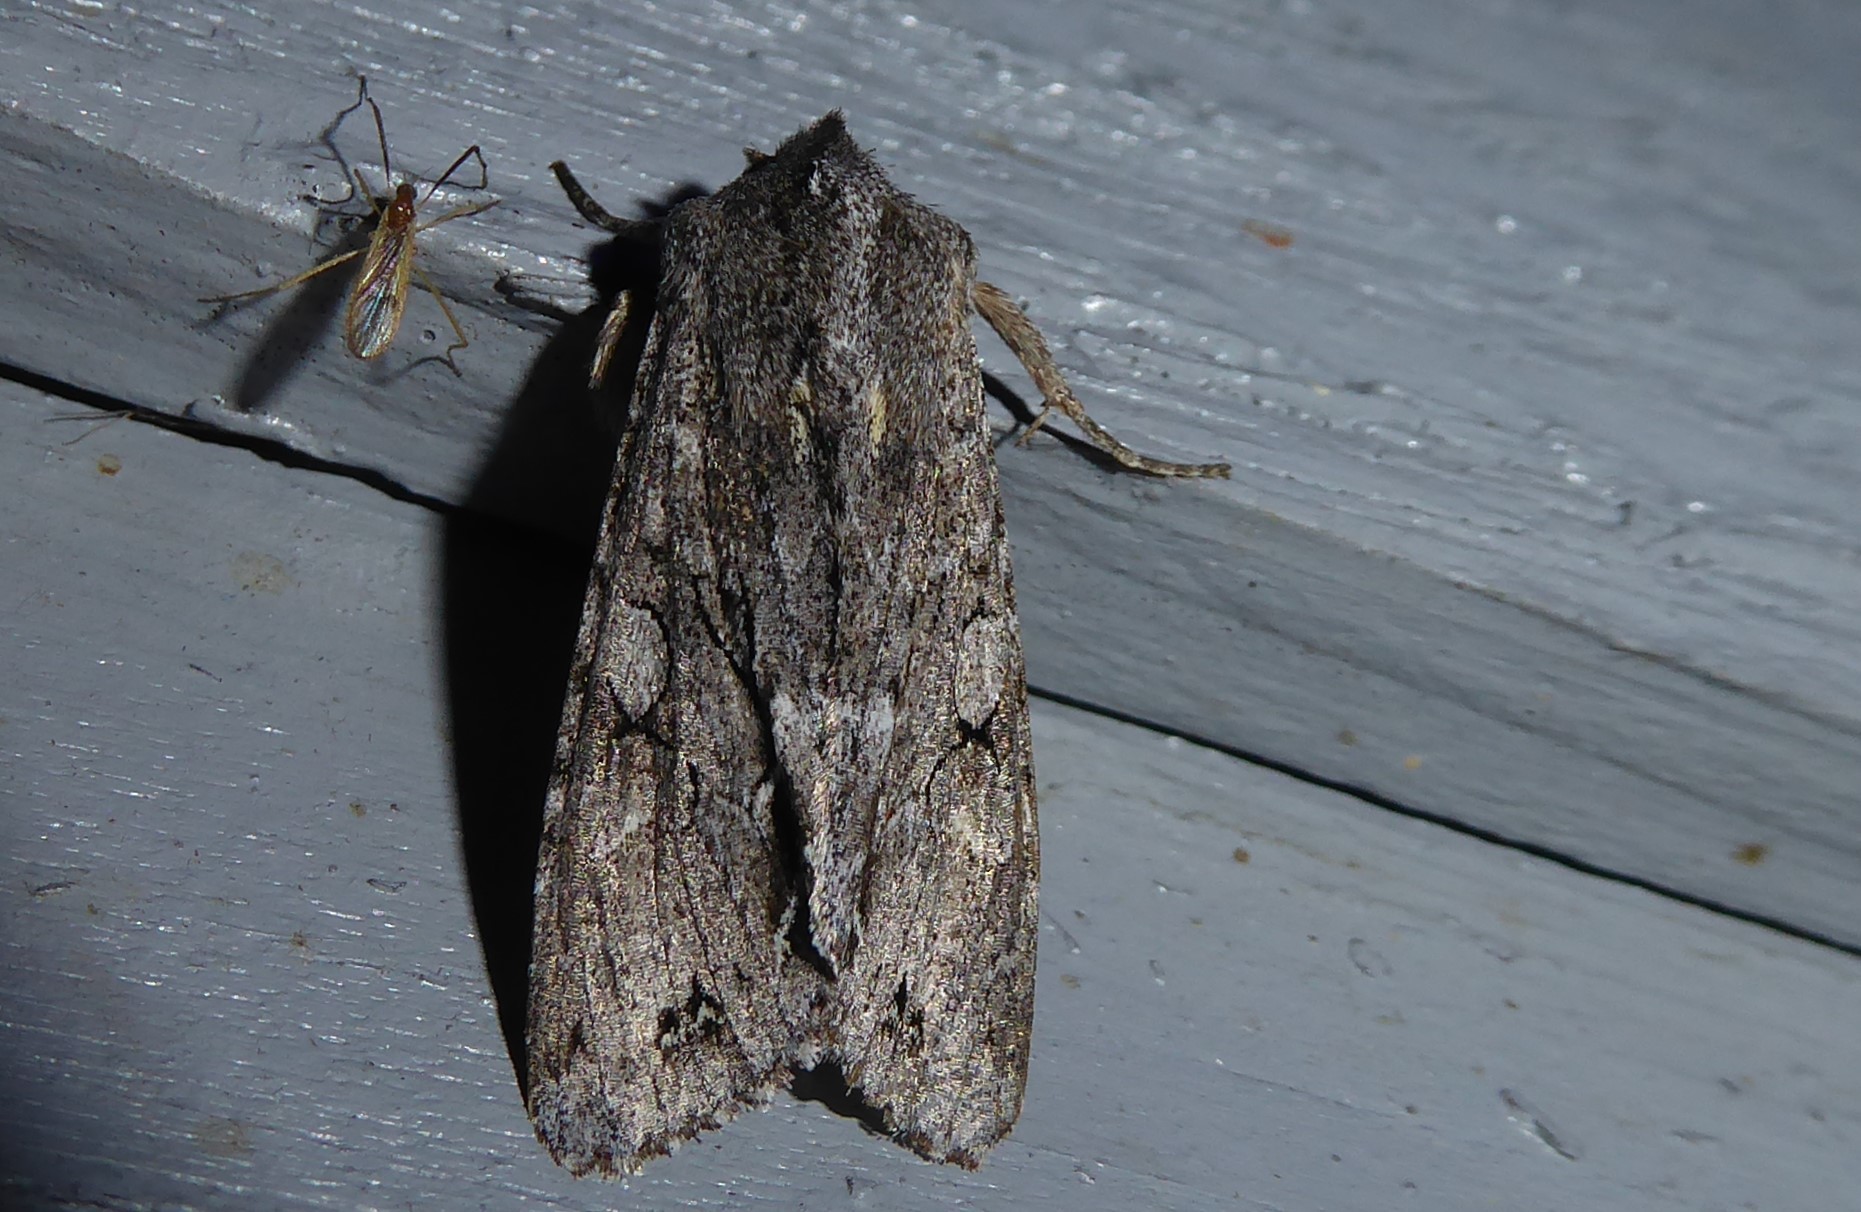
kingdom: Animalia
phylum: Arthropoda
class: Insecta
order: Lepidoptera
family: Noctuidae
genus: Ichneutica
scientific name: Ichneutica
